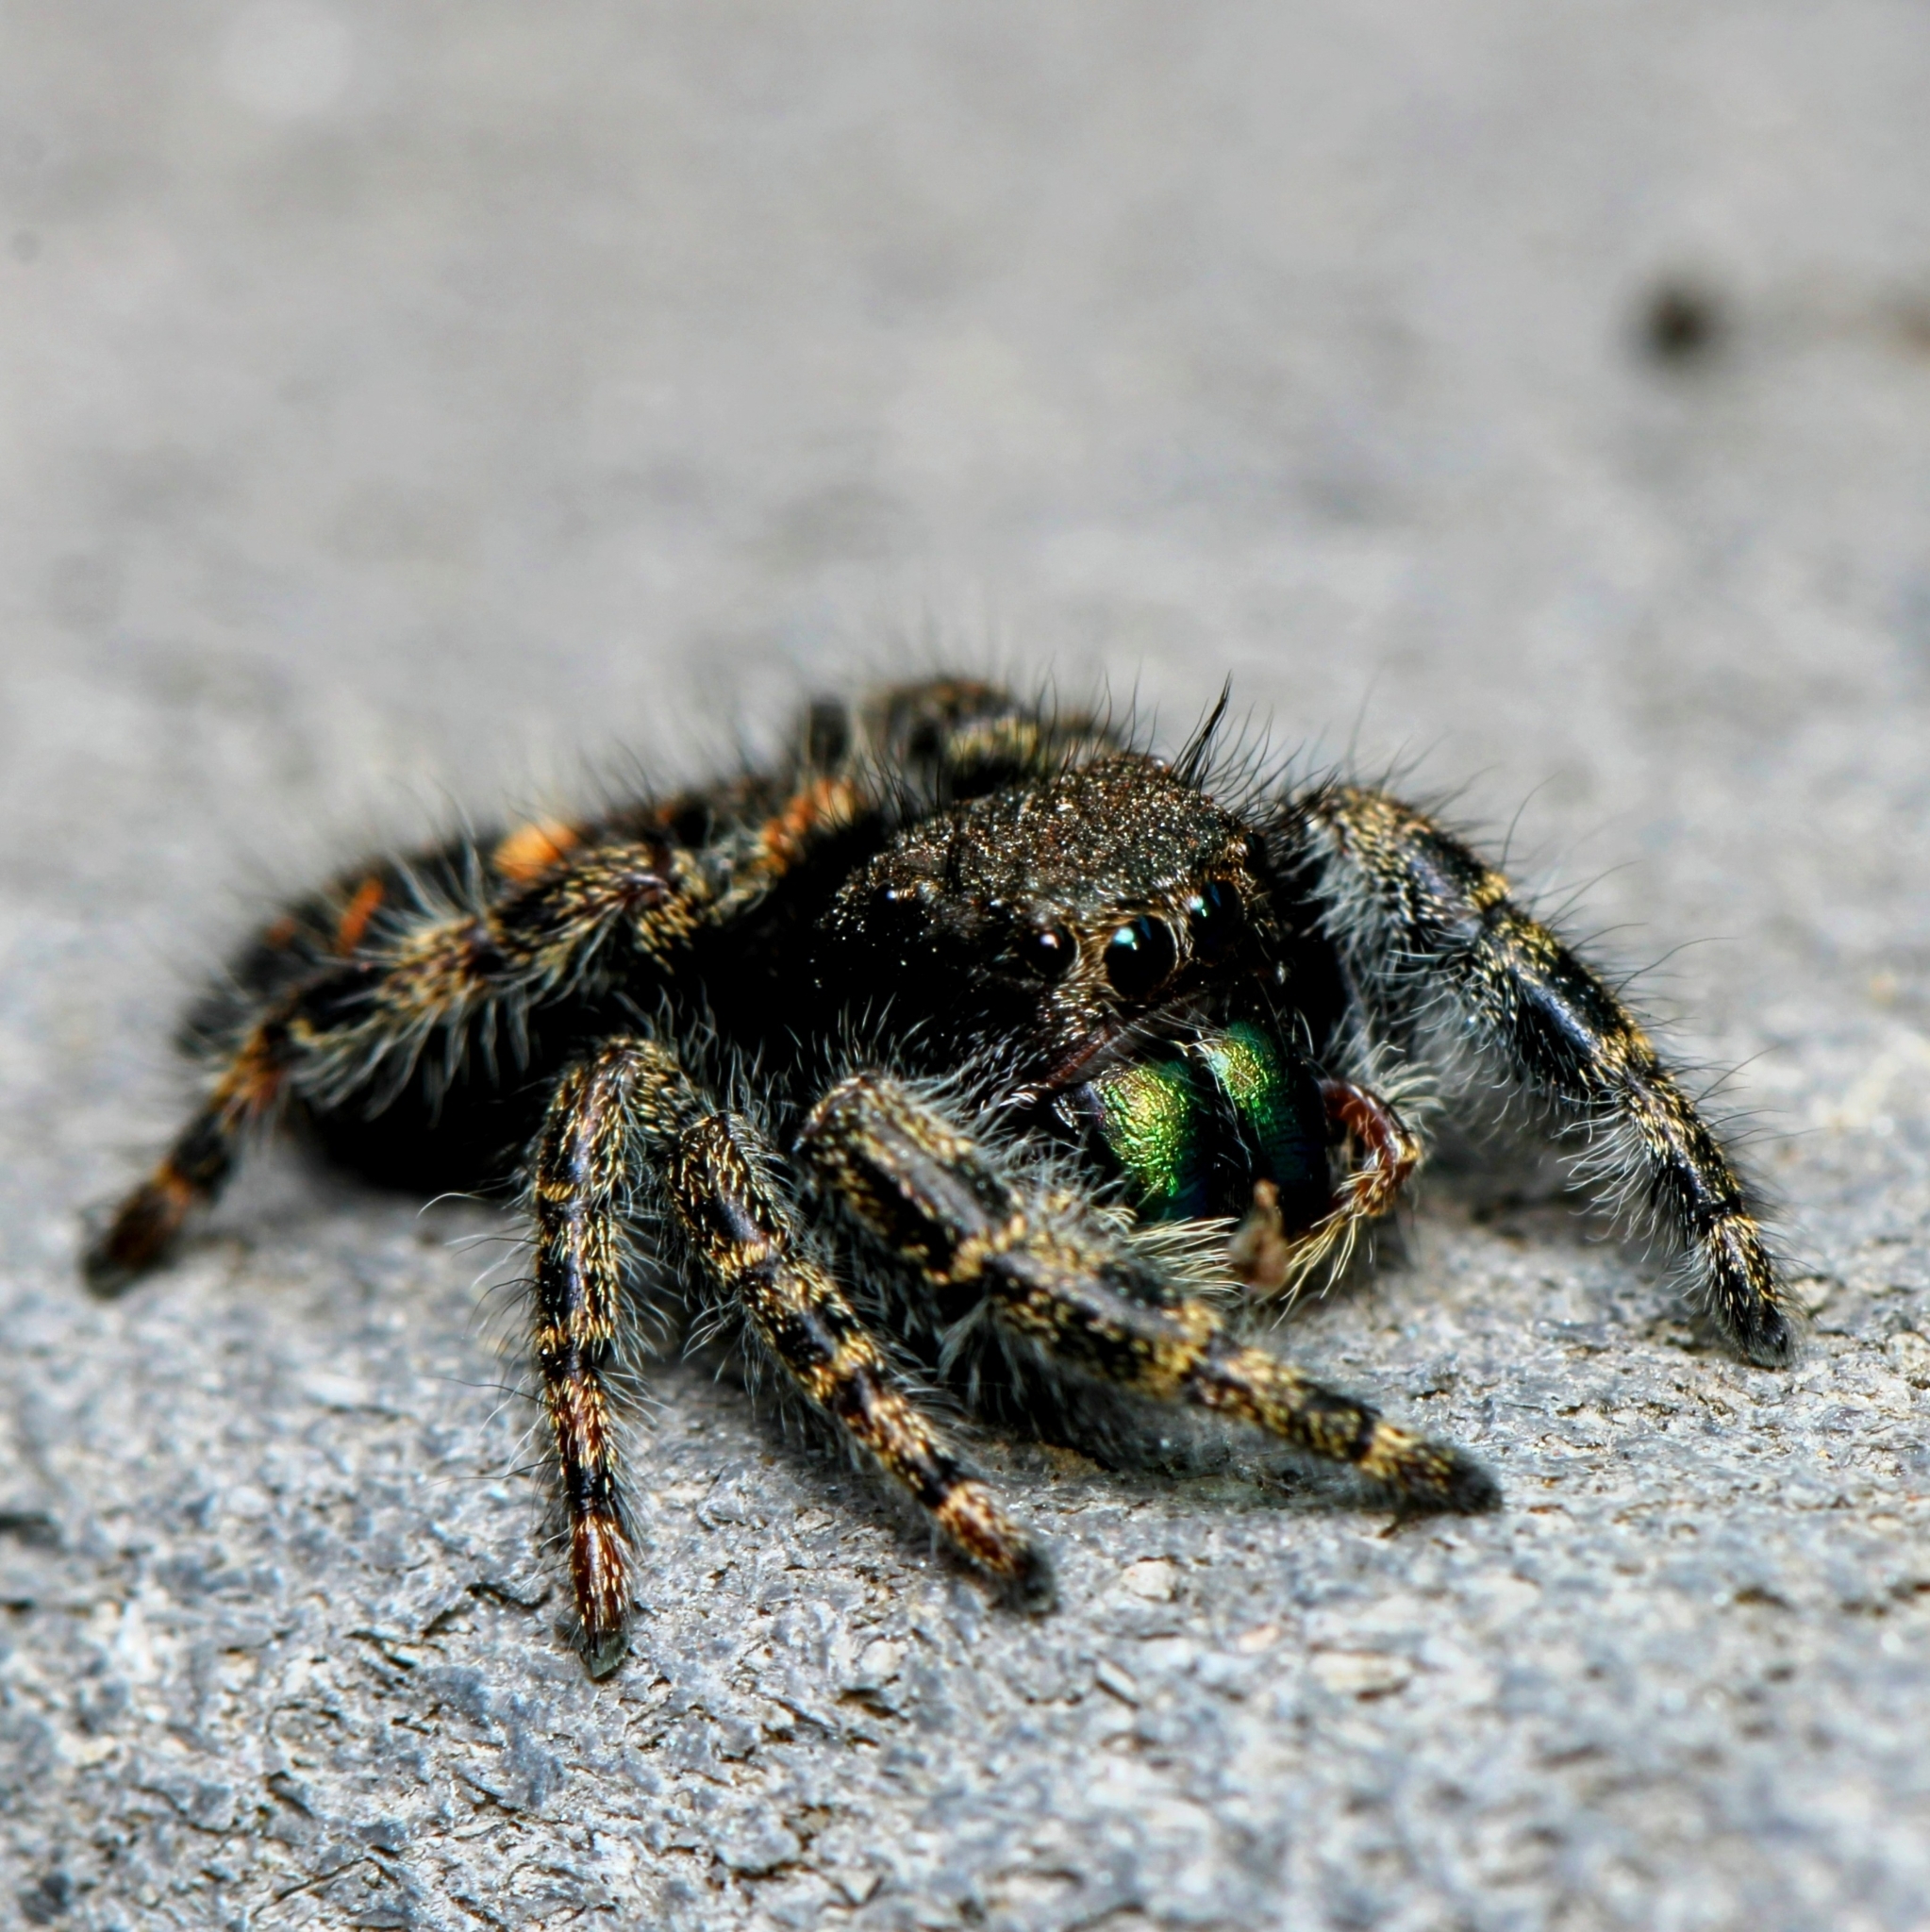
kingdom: Animalia
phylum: Arthropoda
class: Arachnida
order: Araneae
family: Salticidae
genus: Phidippus
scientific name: Phidippus audax
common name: Bold jumper
